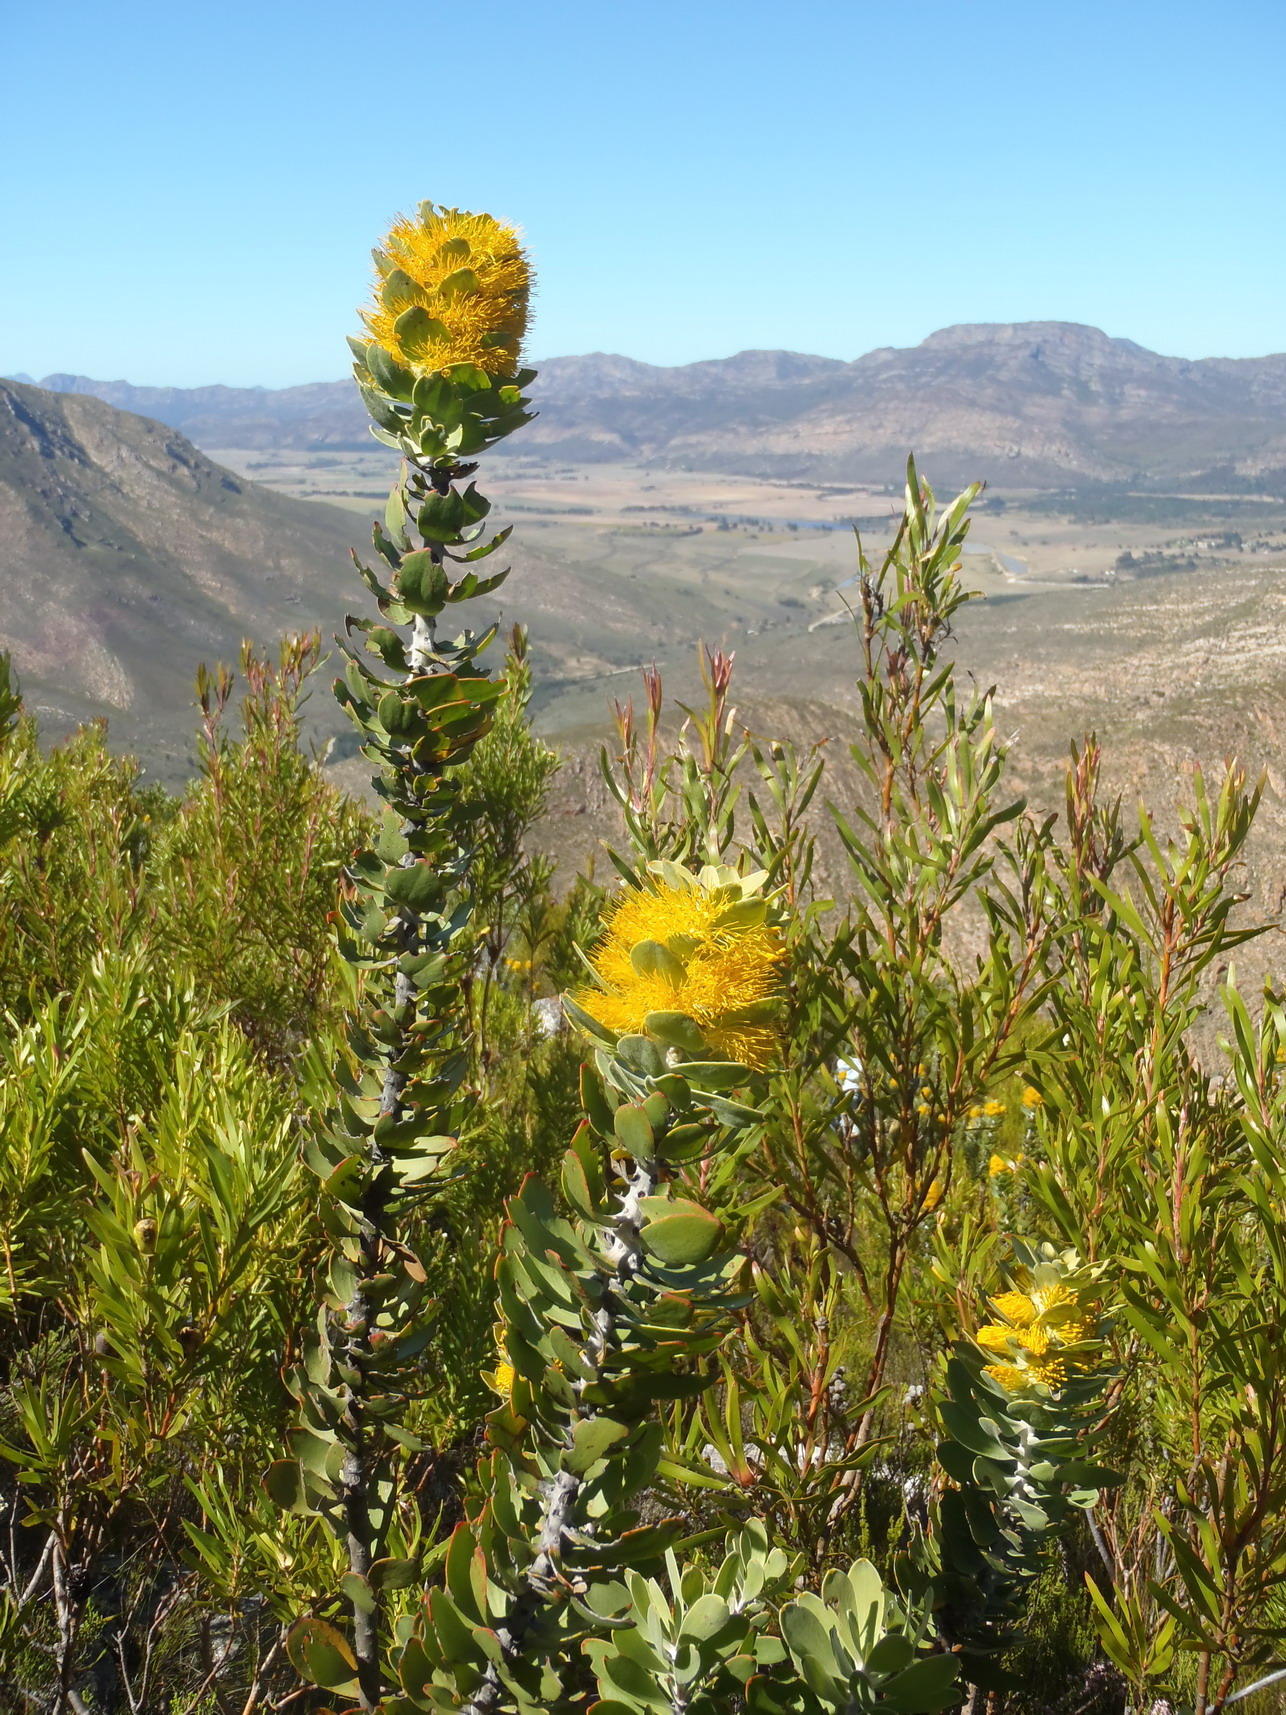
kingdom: Plantae
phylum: Tracheophyta
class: Magnoliopsida
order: Proteales
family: Proteaceae
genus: Mimetes
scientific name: Mimetes chrysanthus
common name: Golden pagoda
